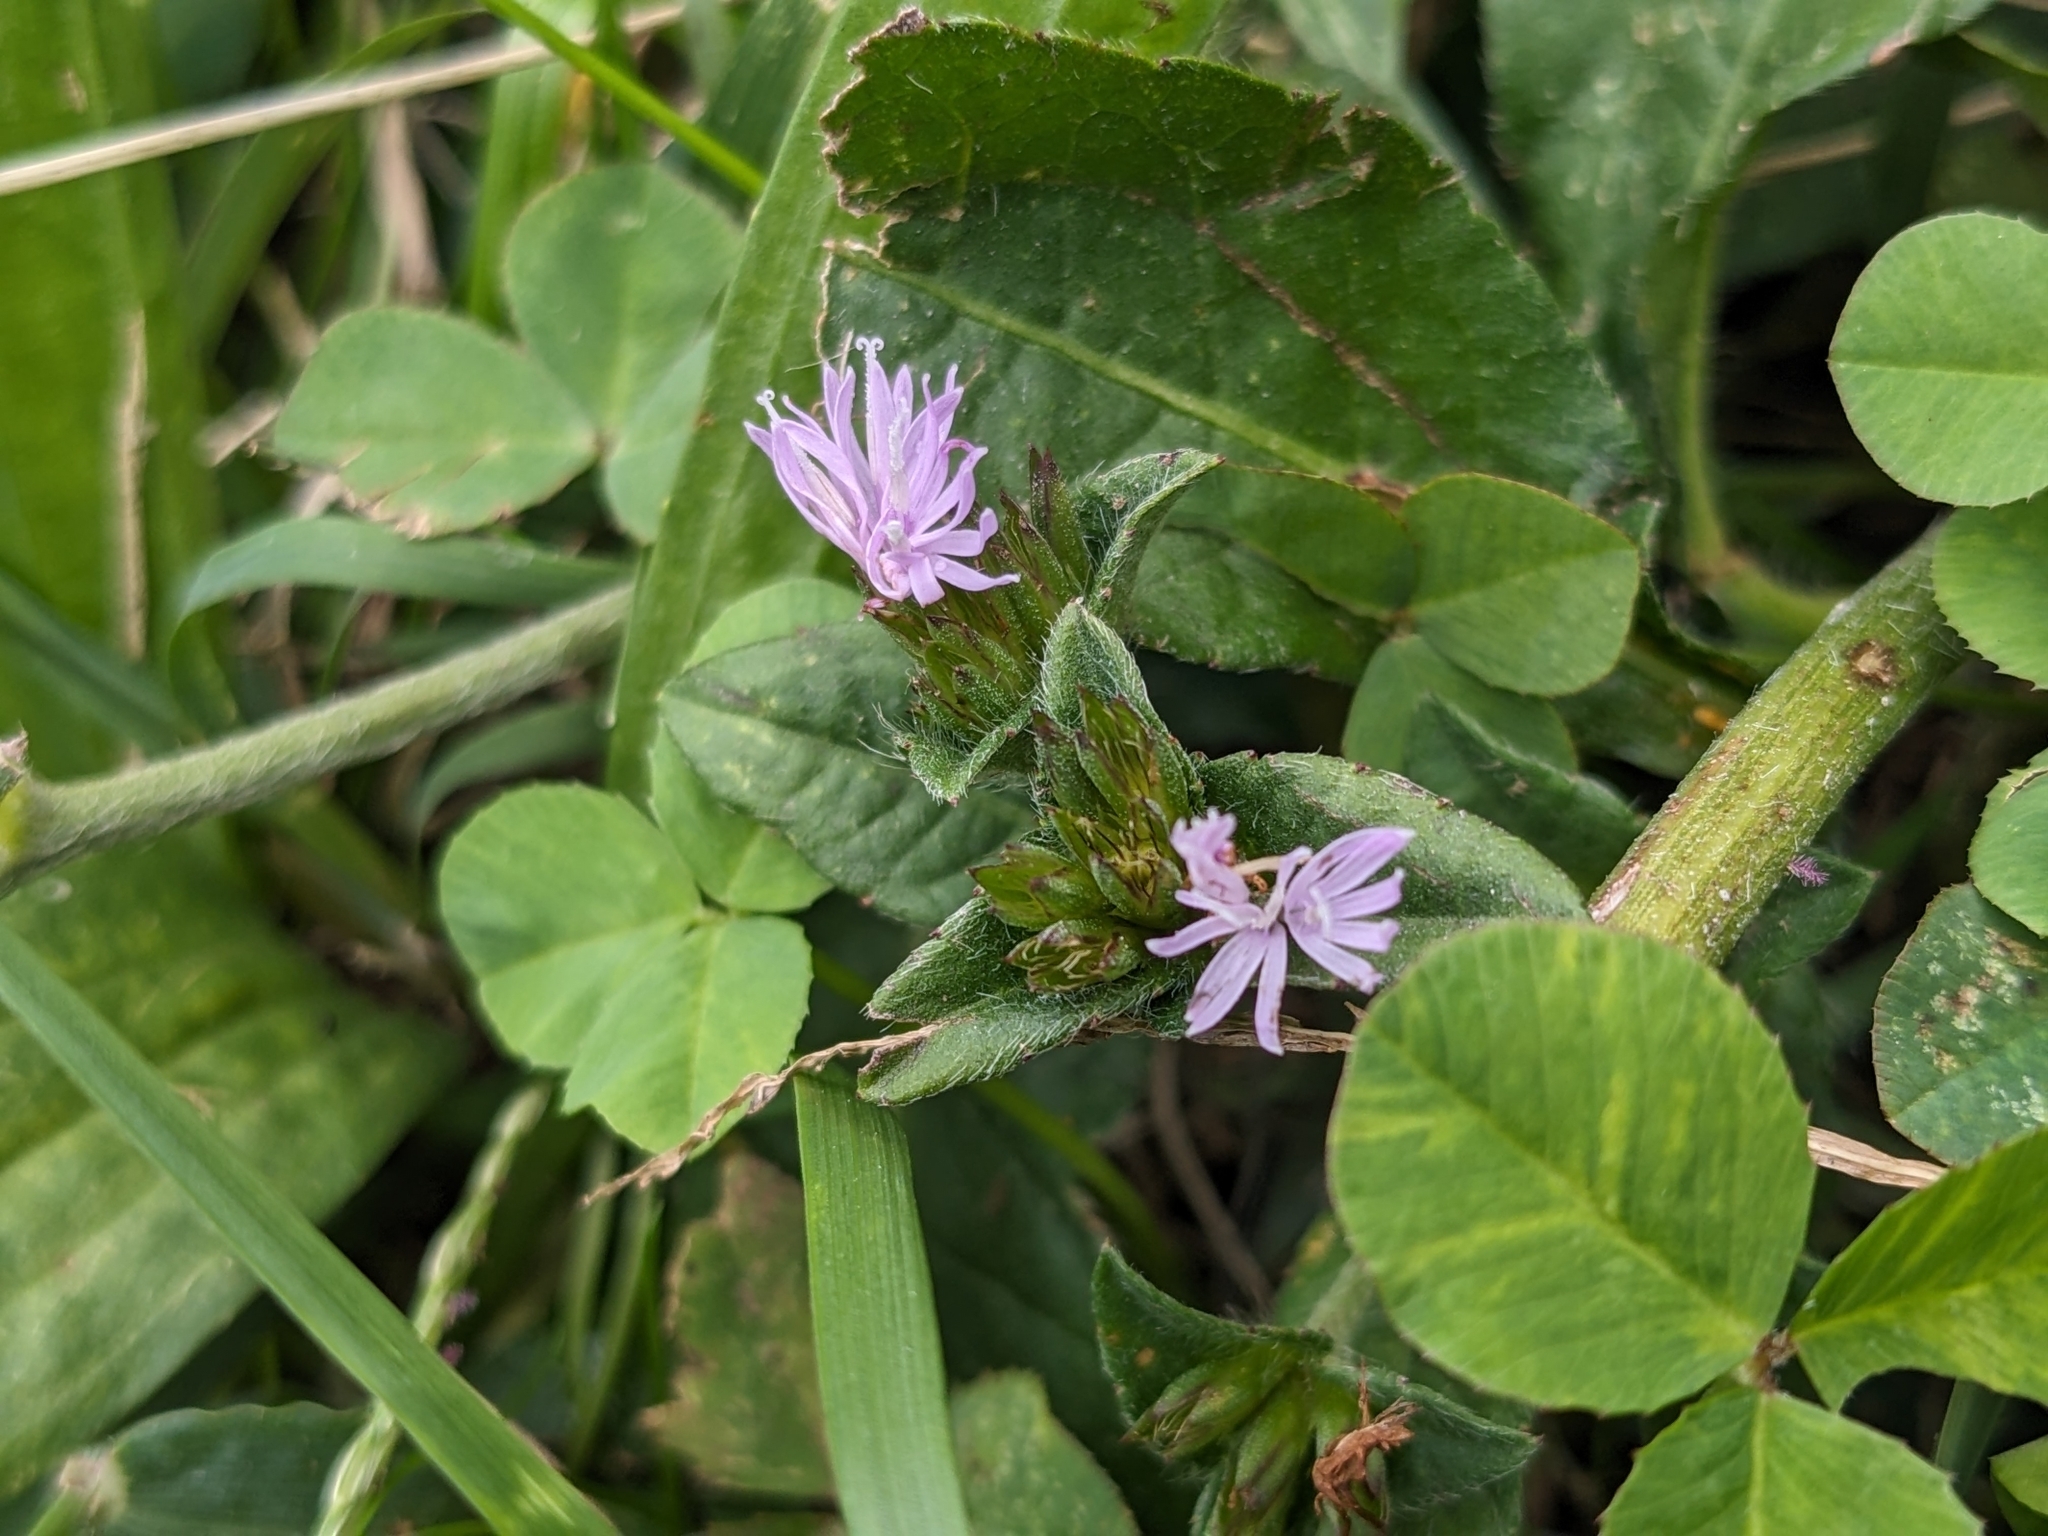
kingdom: Plantae
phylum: Tracheophyta
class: Magnoliopsida
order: Asterales
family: Asteraceae
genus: Elephantopus
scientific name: Elephantopus carolinianus
